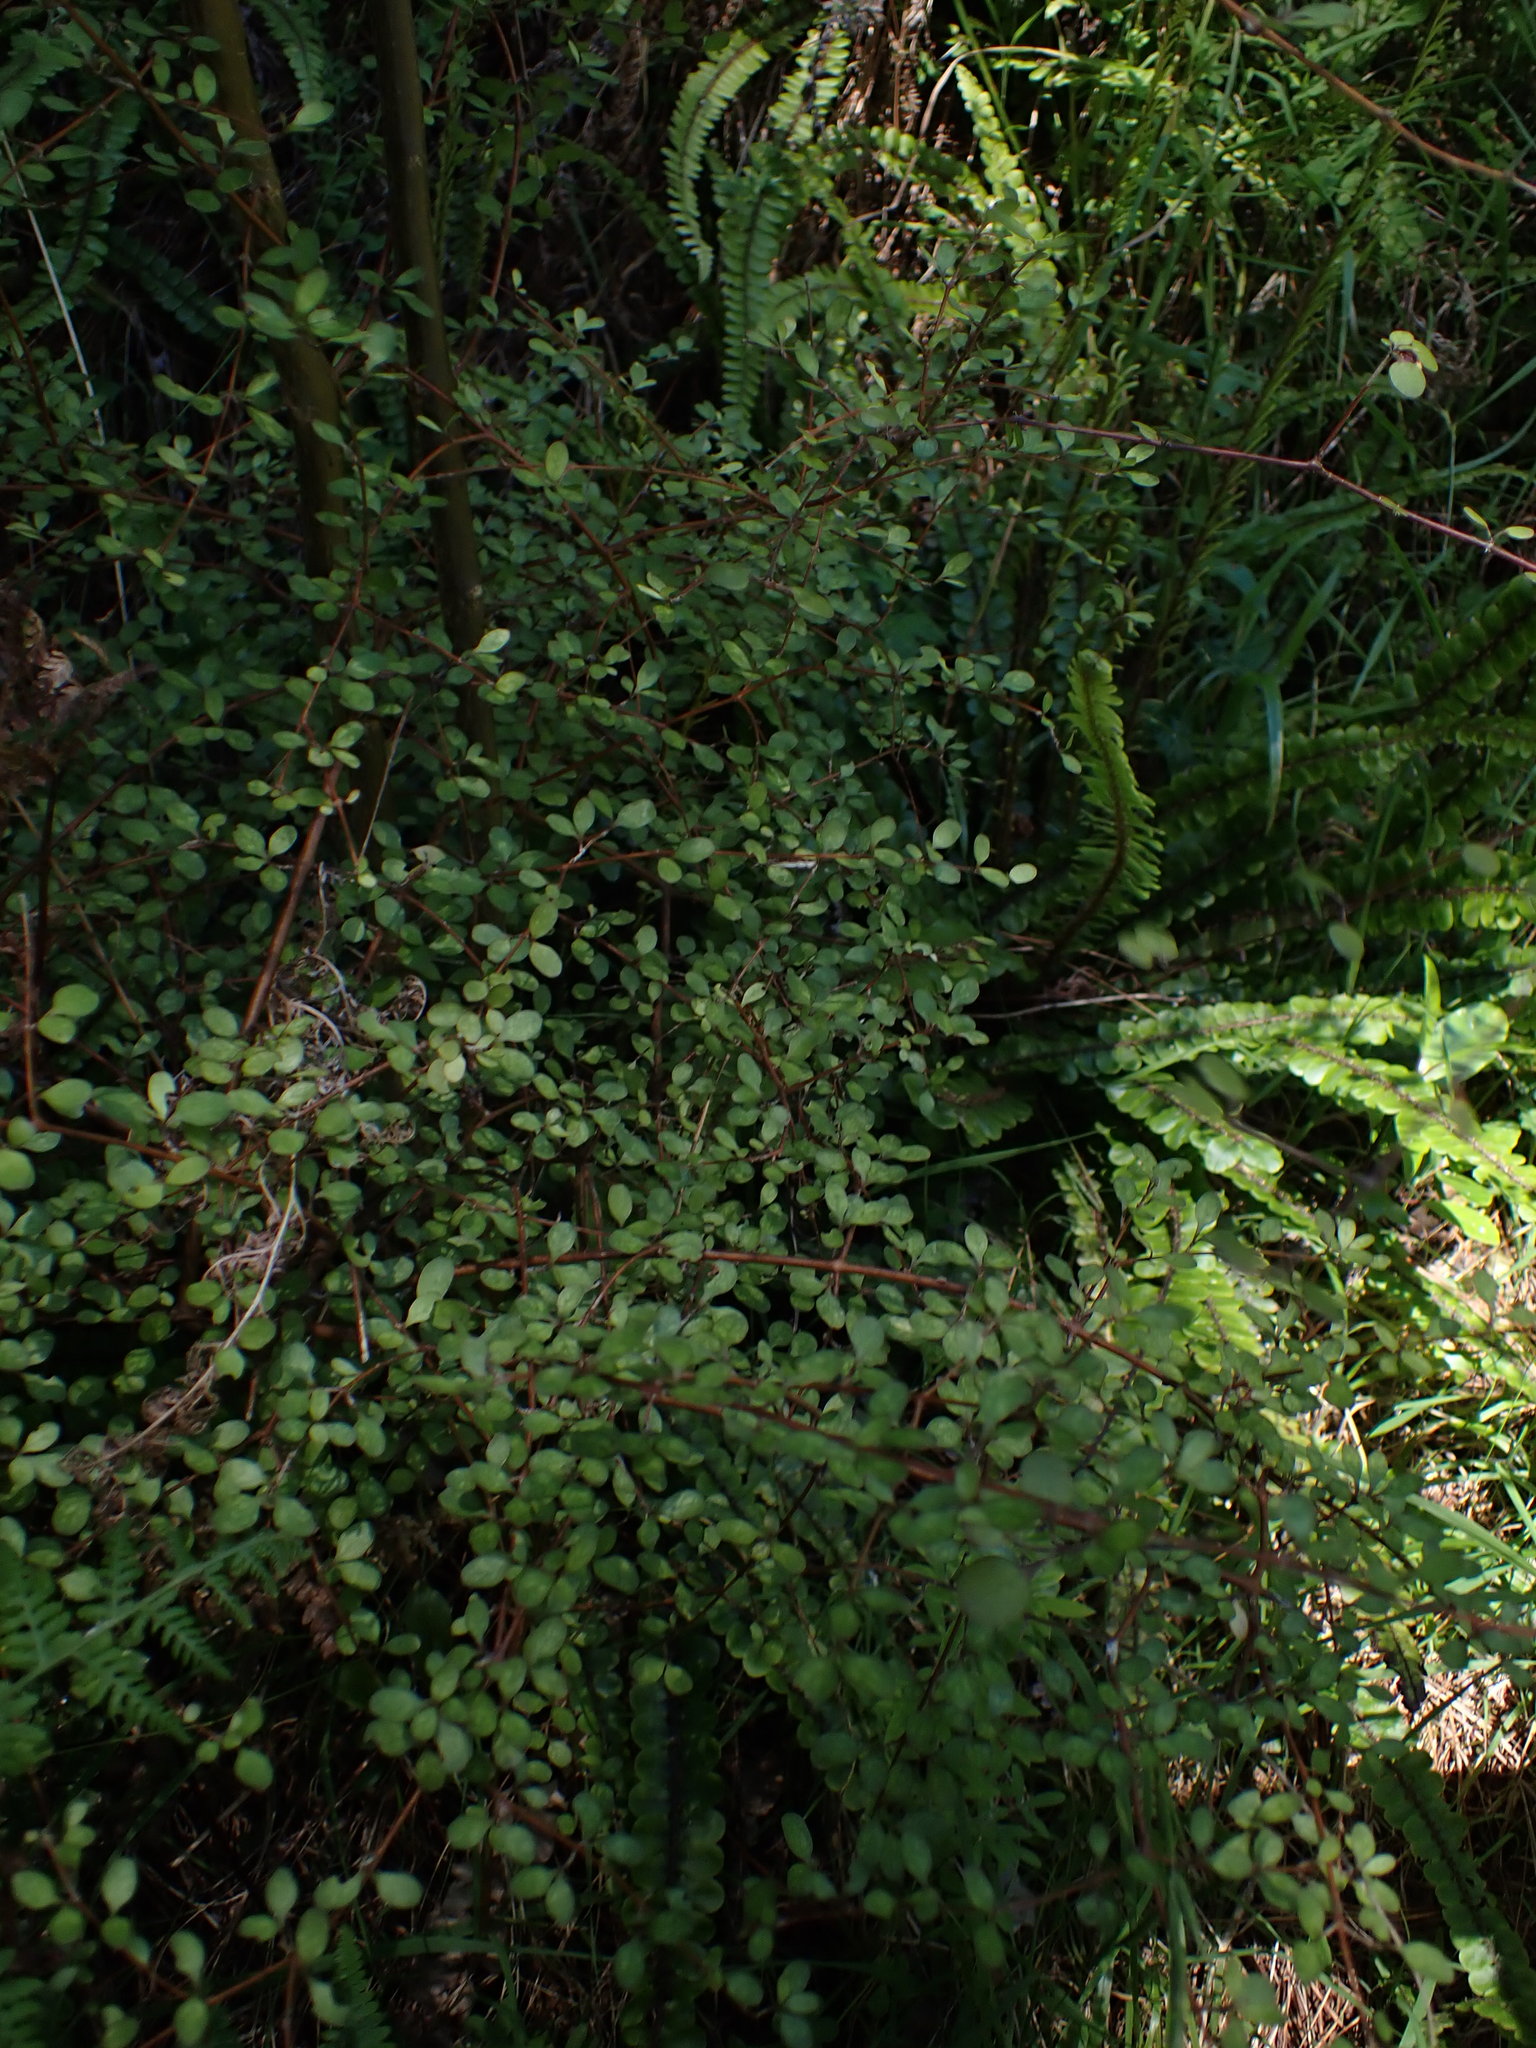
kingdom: Plantae
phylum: Tracheophyta
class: Magnoliopsida
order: Gentianales
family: Rubiaceae
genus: Coprosma
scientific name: Coprosma rigida
